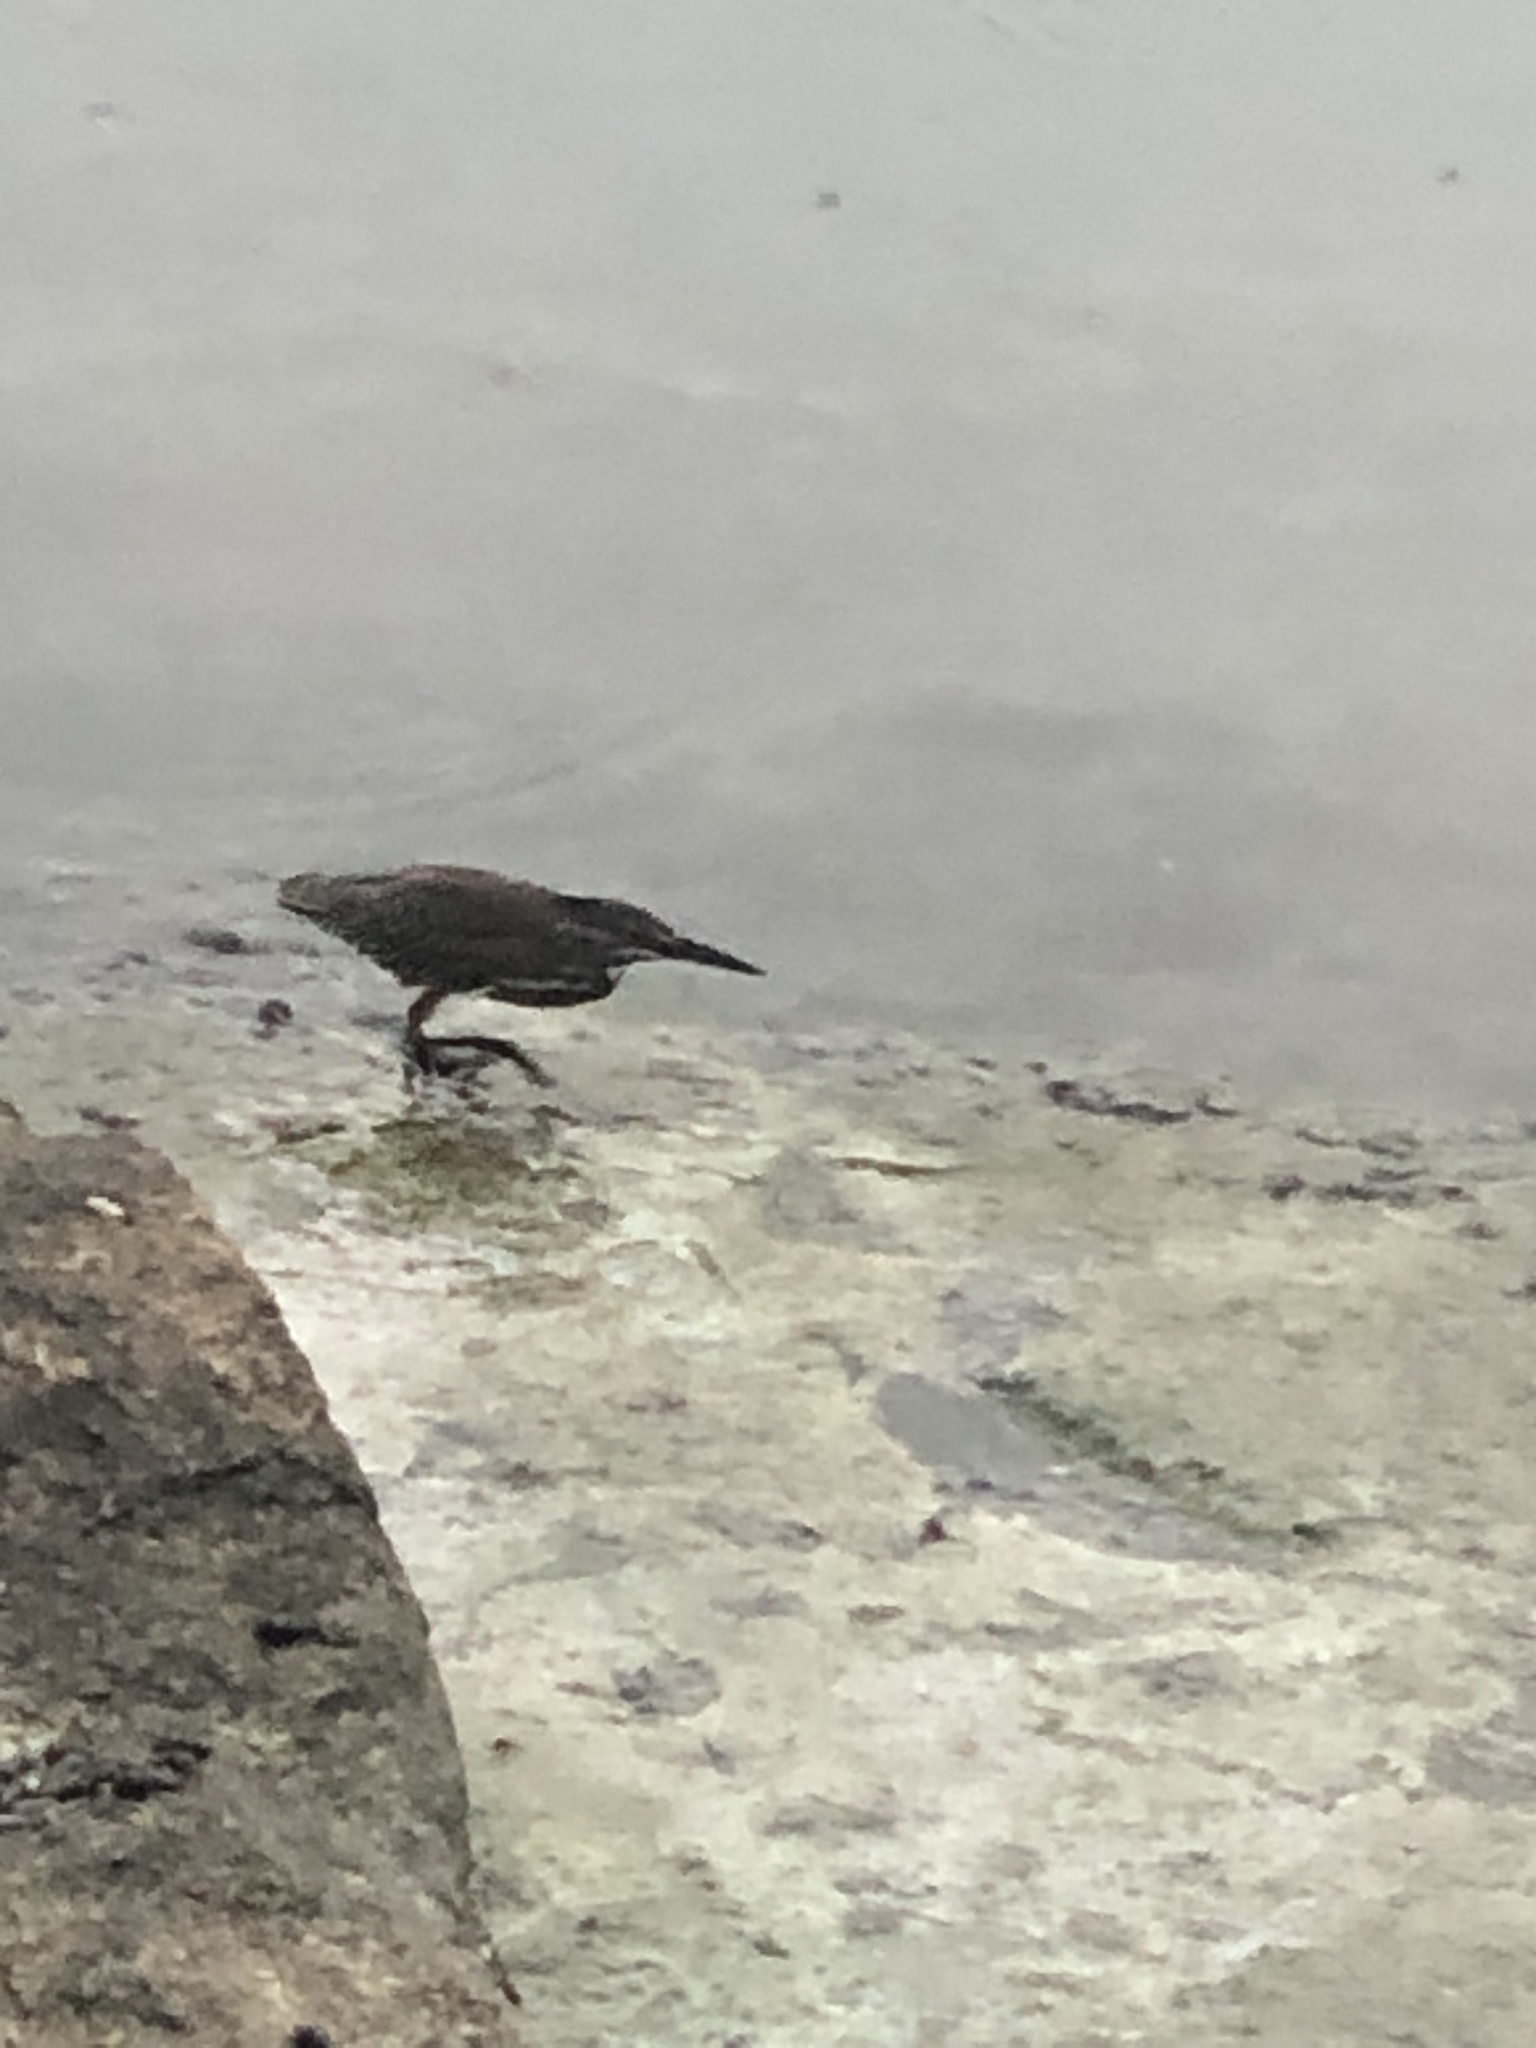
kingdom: Animalia
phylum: Chordata
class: Aves
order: Pelecaniformes
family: Ardeidae
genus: Butorides
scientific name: Butorides striata
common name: Striated heron
